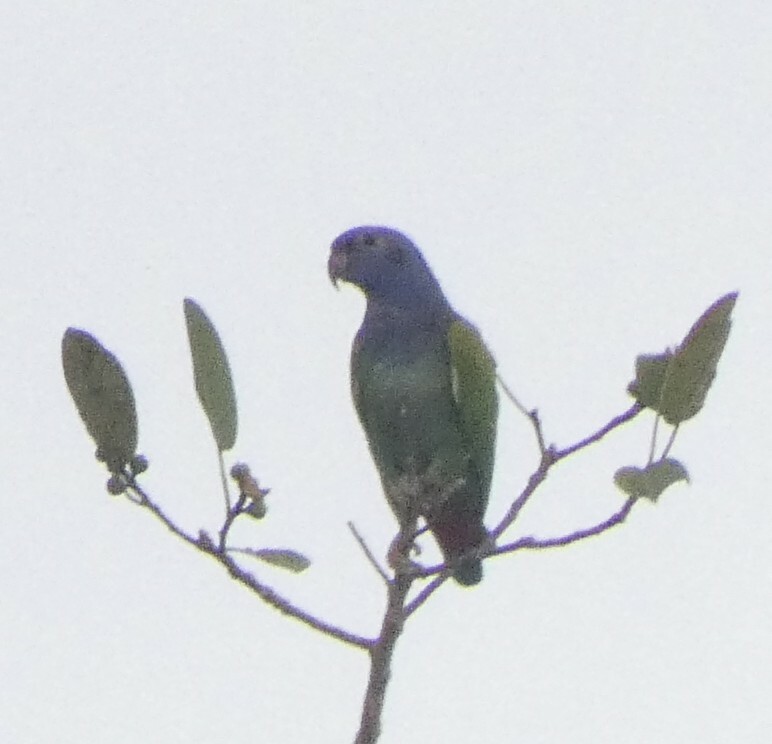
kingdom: Animalia
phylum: Chordata
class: Aves
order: Psittaciformes
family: Psittacidae
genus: Pionus
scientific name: Pionus menstruus
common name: Blue-headed parrot
